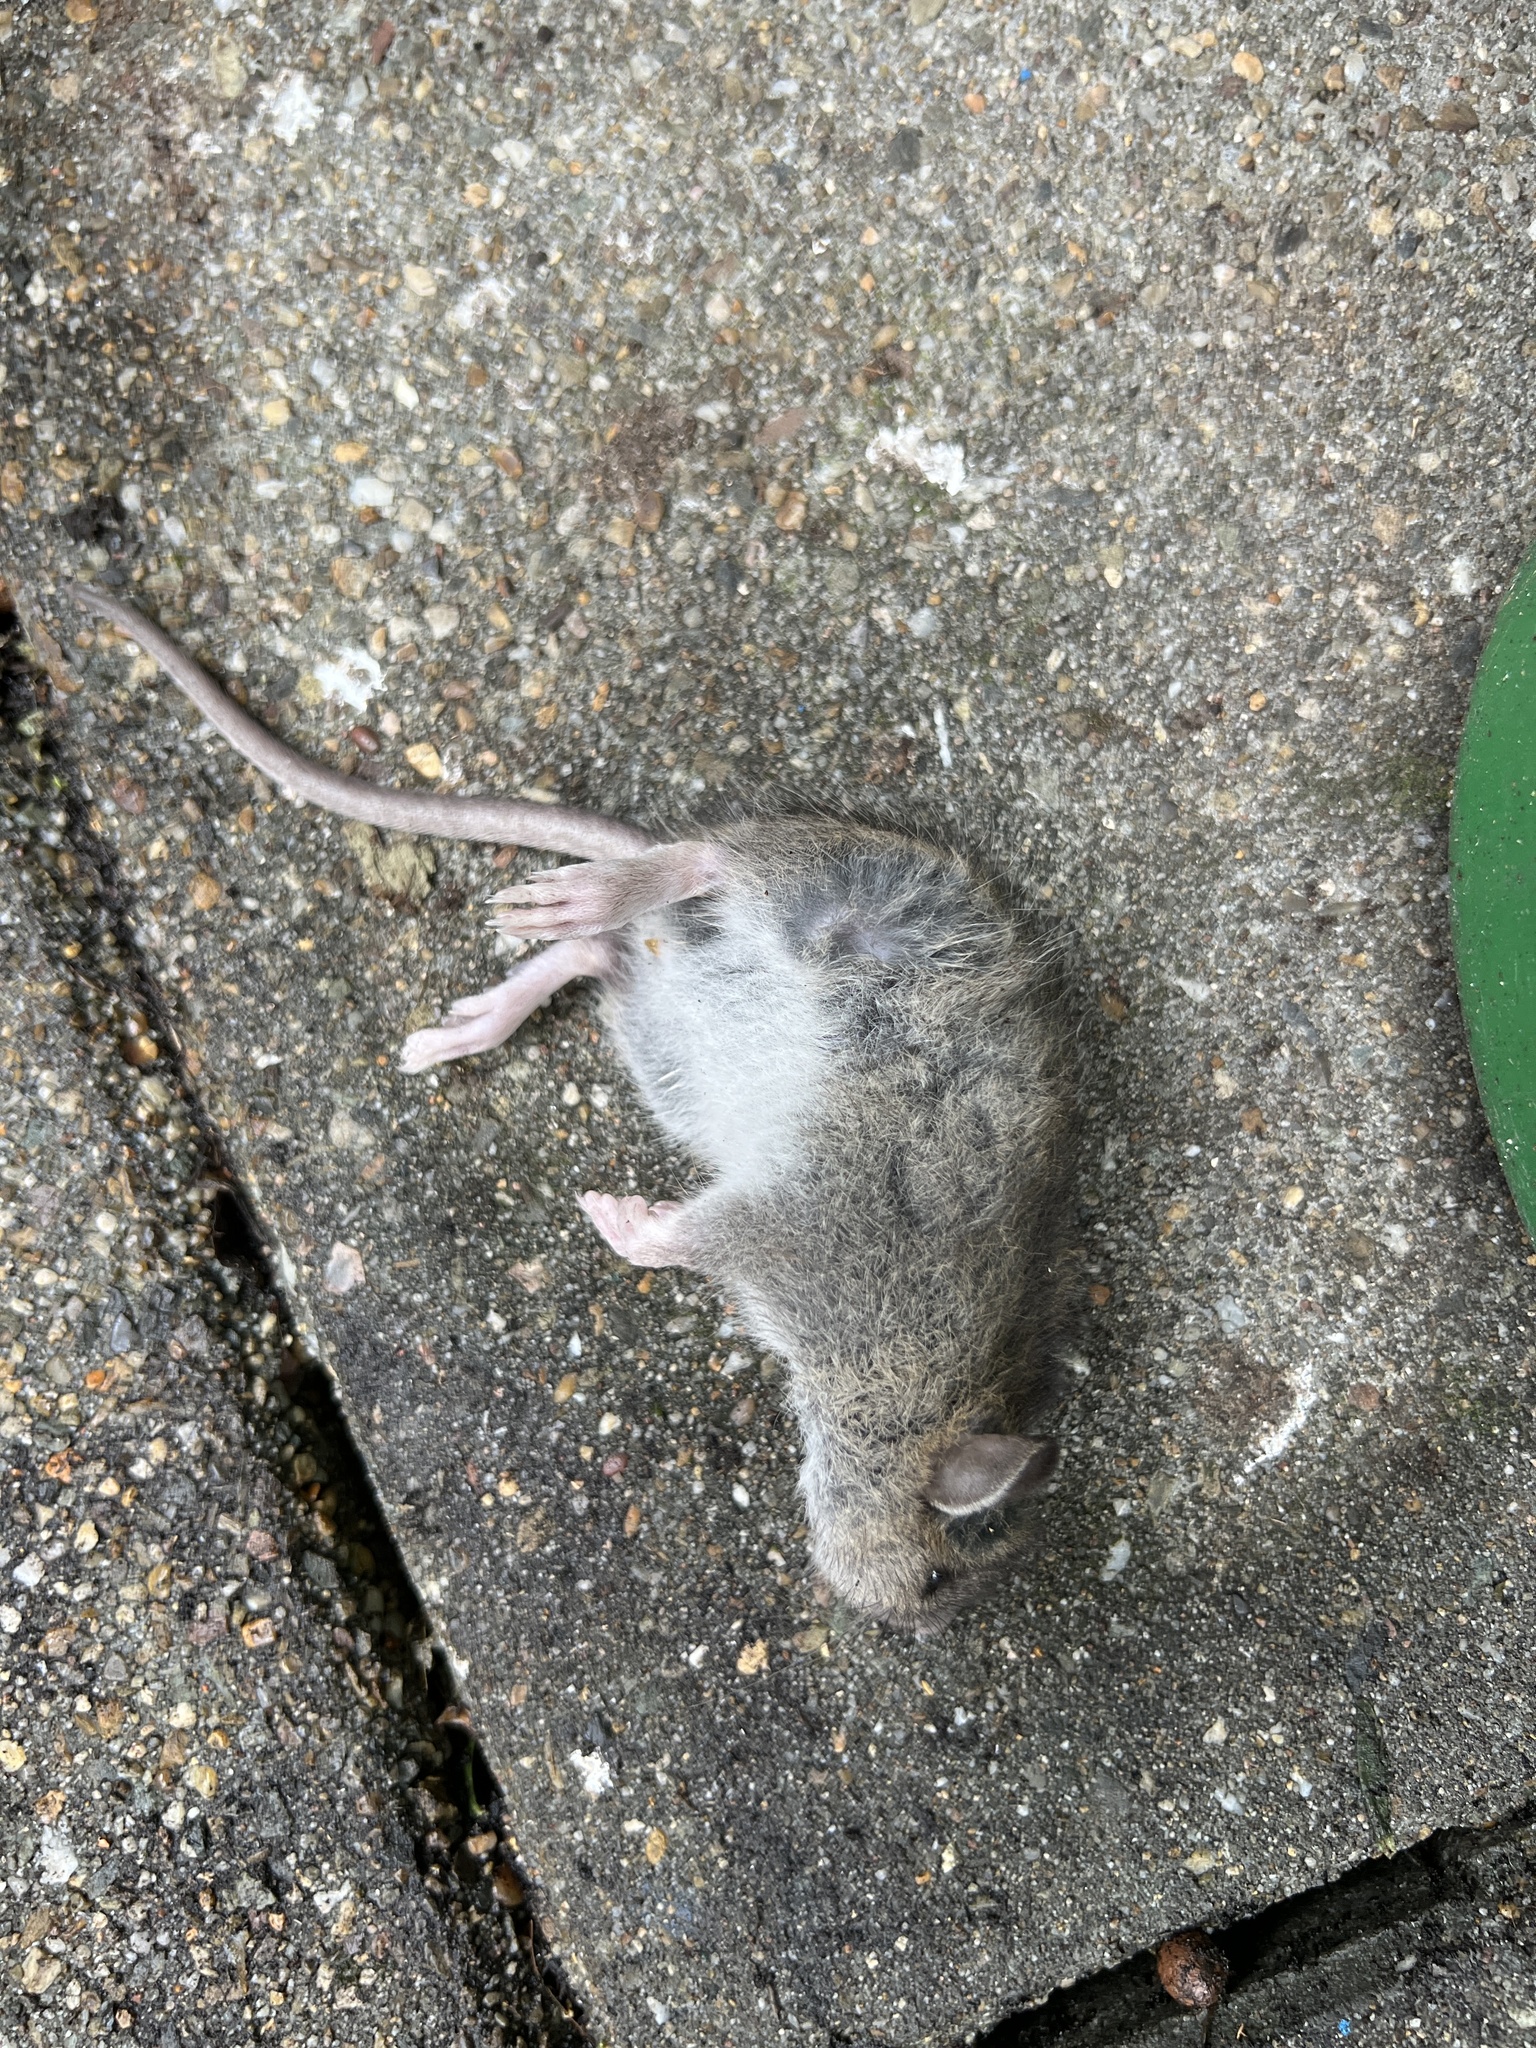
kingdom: Animalia
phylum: Chordata
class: Mammalia
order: Rodentia
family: Muridae
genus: Rattus
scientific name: Rattus norvegicus
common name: Brown rat
